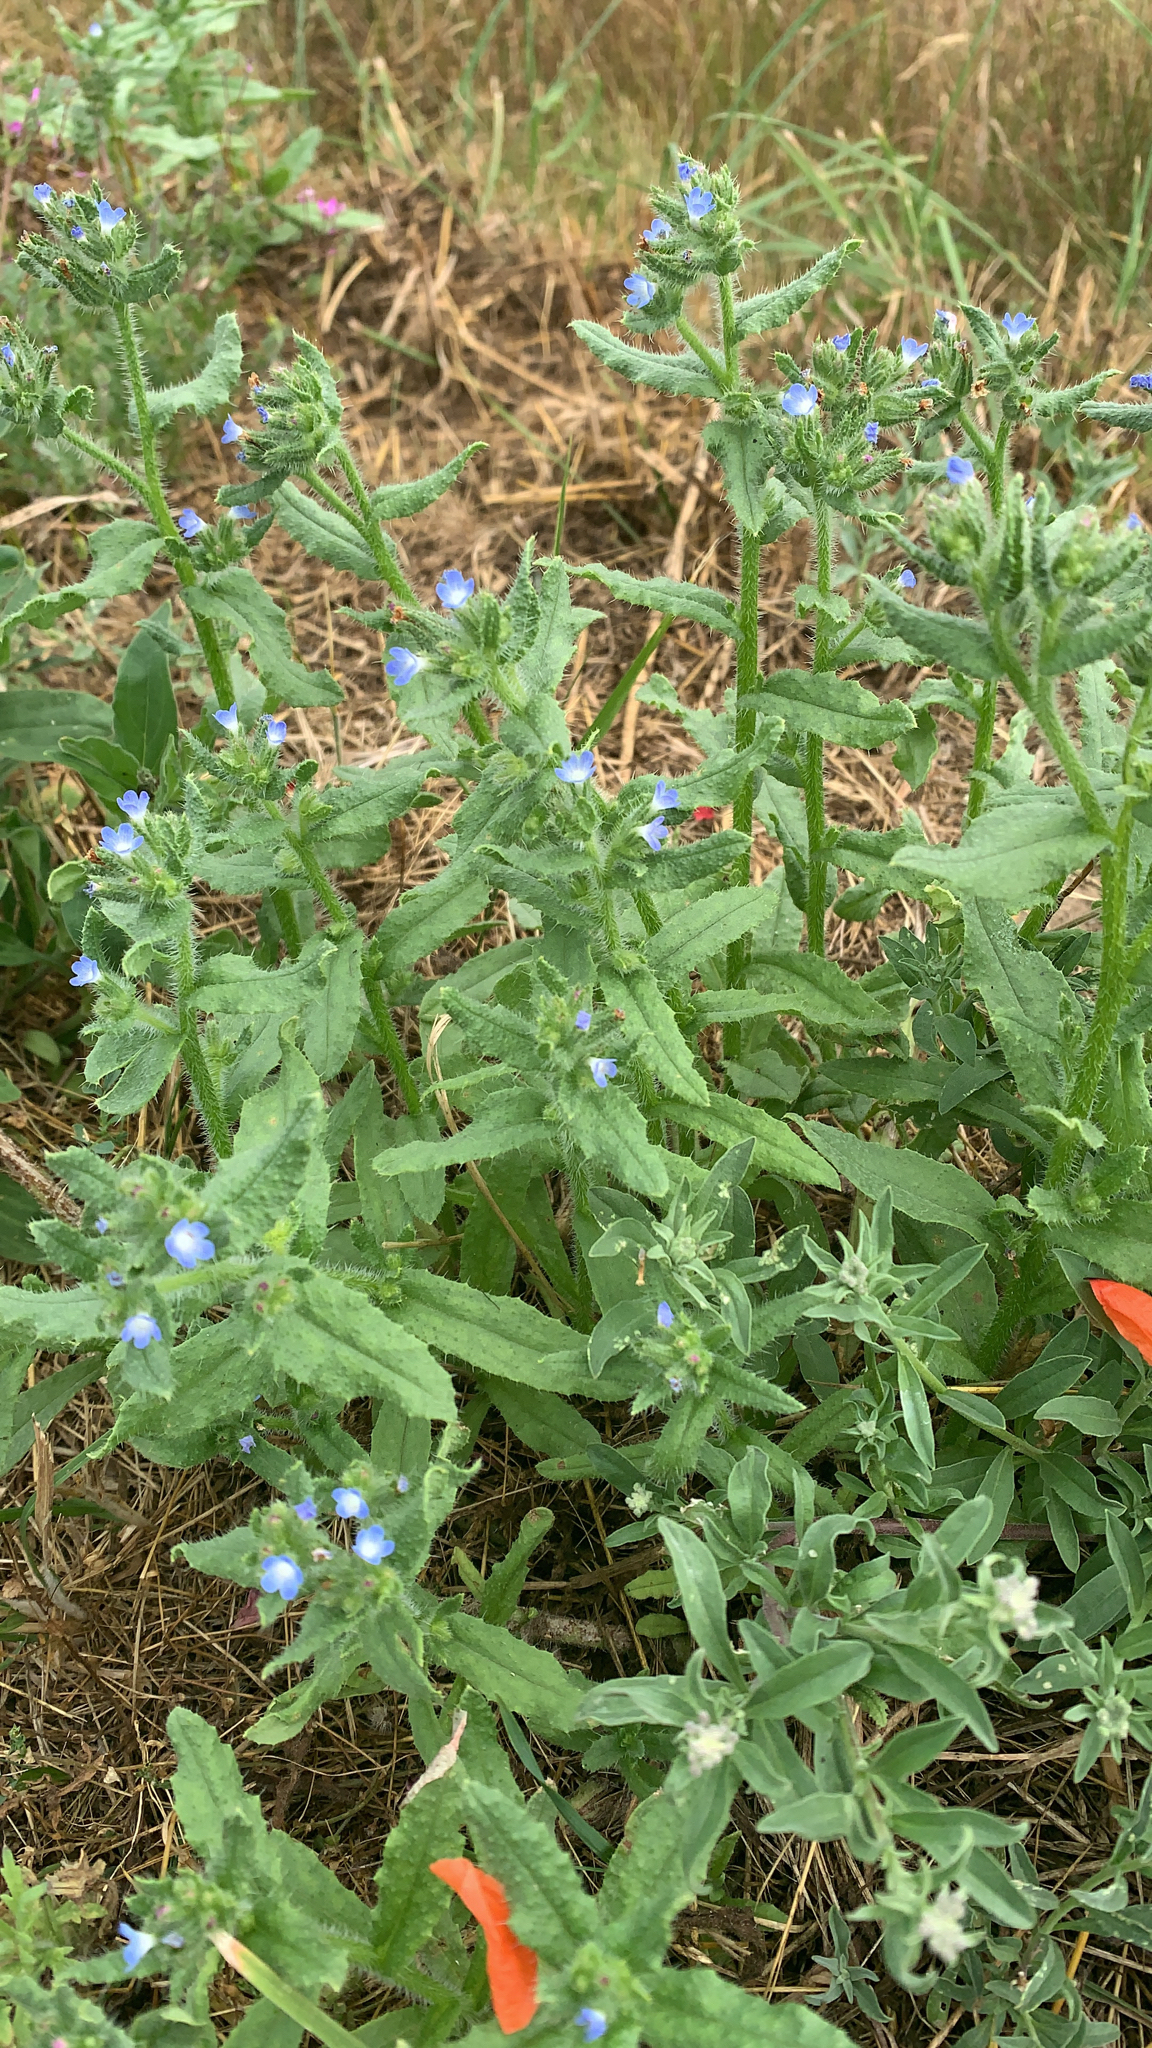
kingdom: Plantae
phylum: Tracheophyta
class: Magnoliopsida
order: Boraginales
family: Boraginaceae
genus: Lycopsis
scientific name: Lycopsis arvensis
